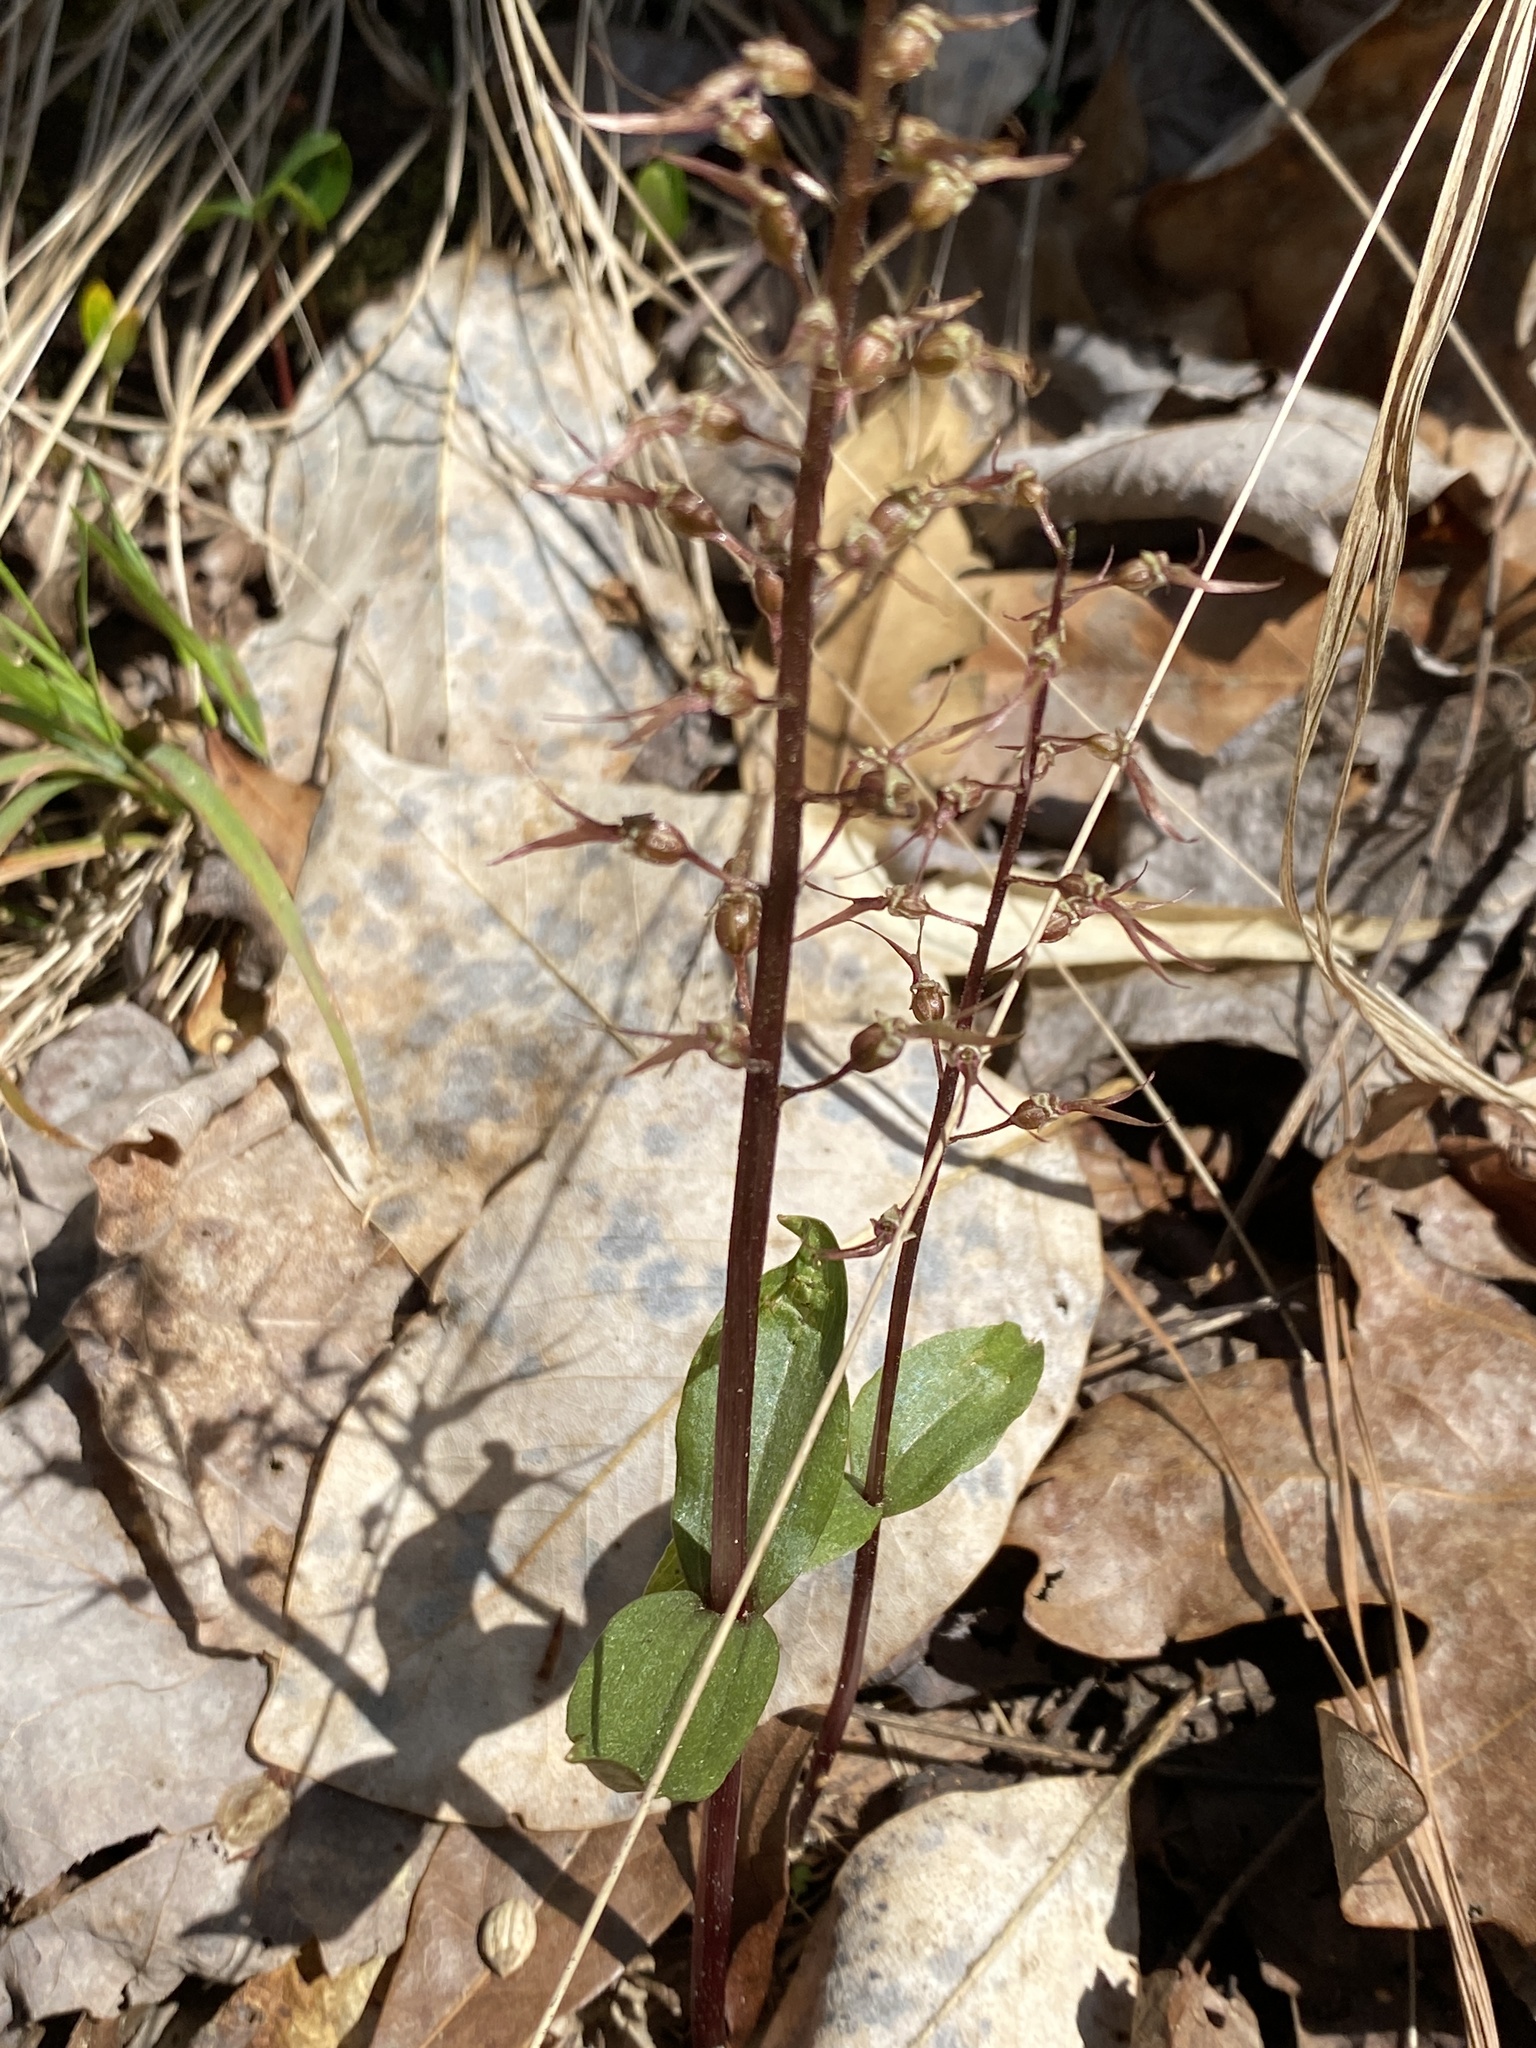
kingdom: Plantae
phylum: Tracheophyta
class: Liliopsida
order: Asparagales
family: Orchidaceae
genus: Neottia
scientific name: Neottia bifolia
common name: Southern twayblade
